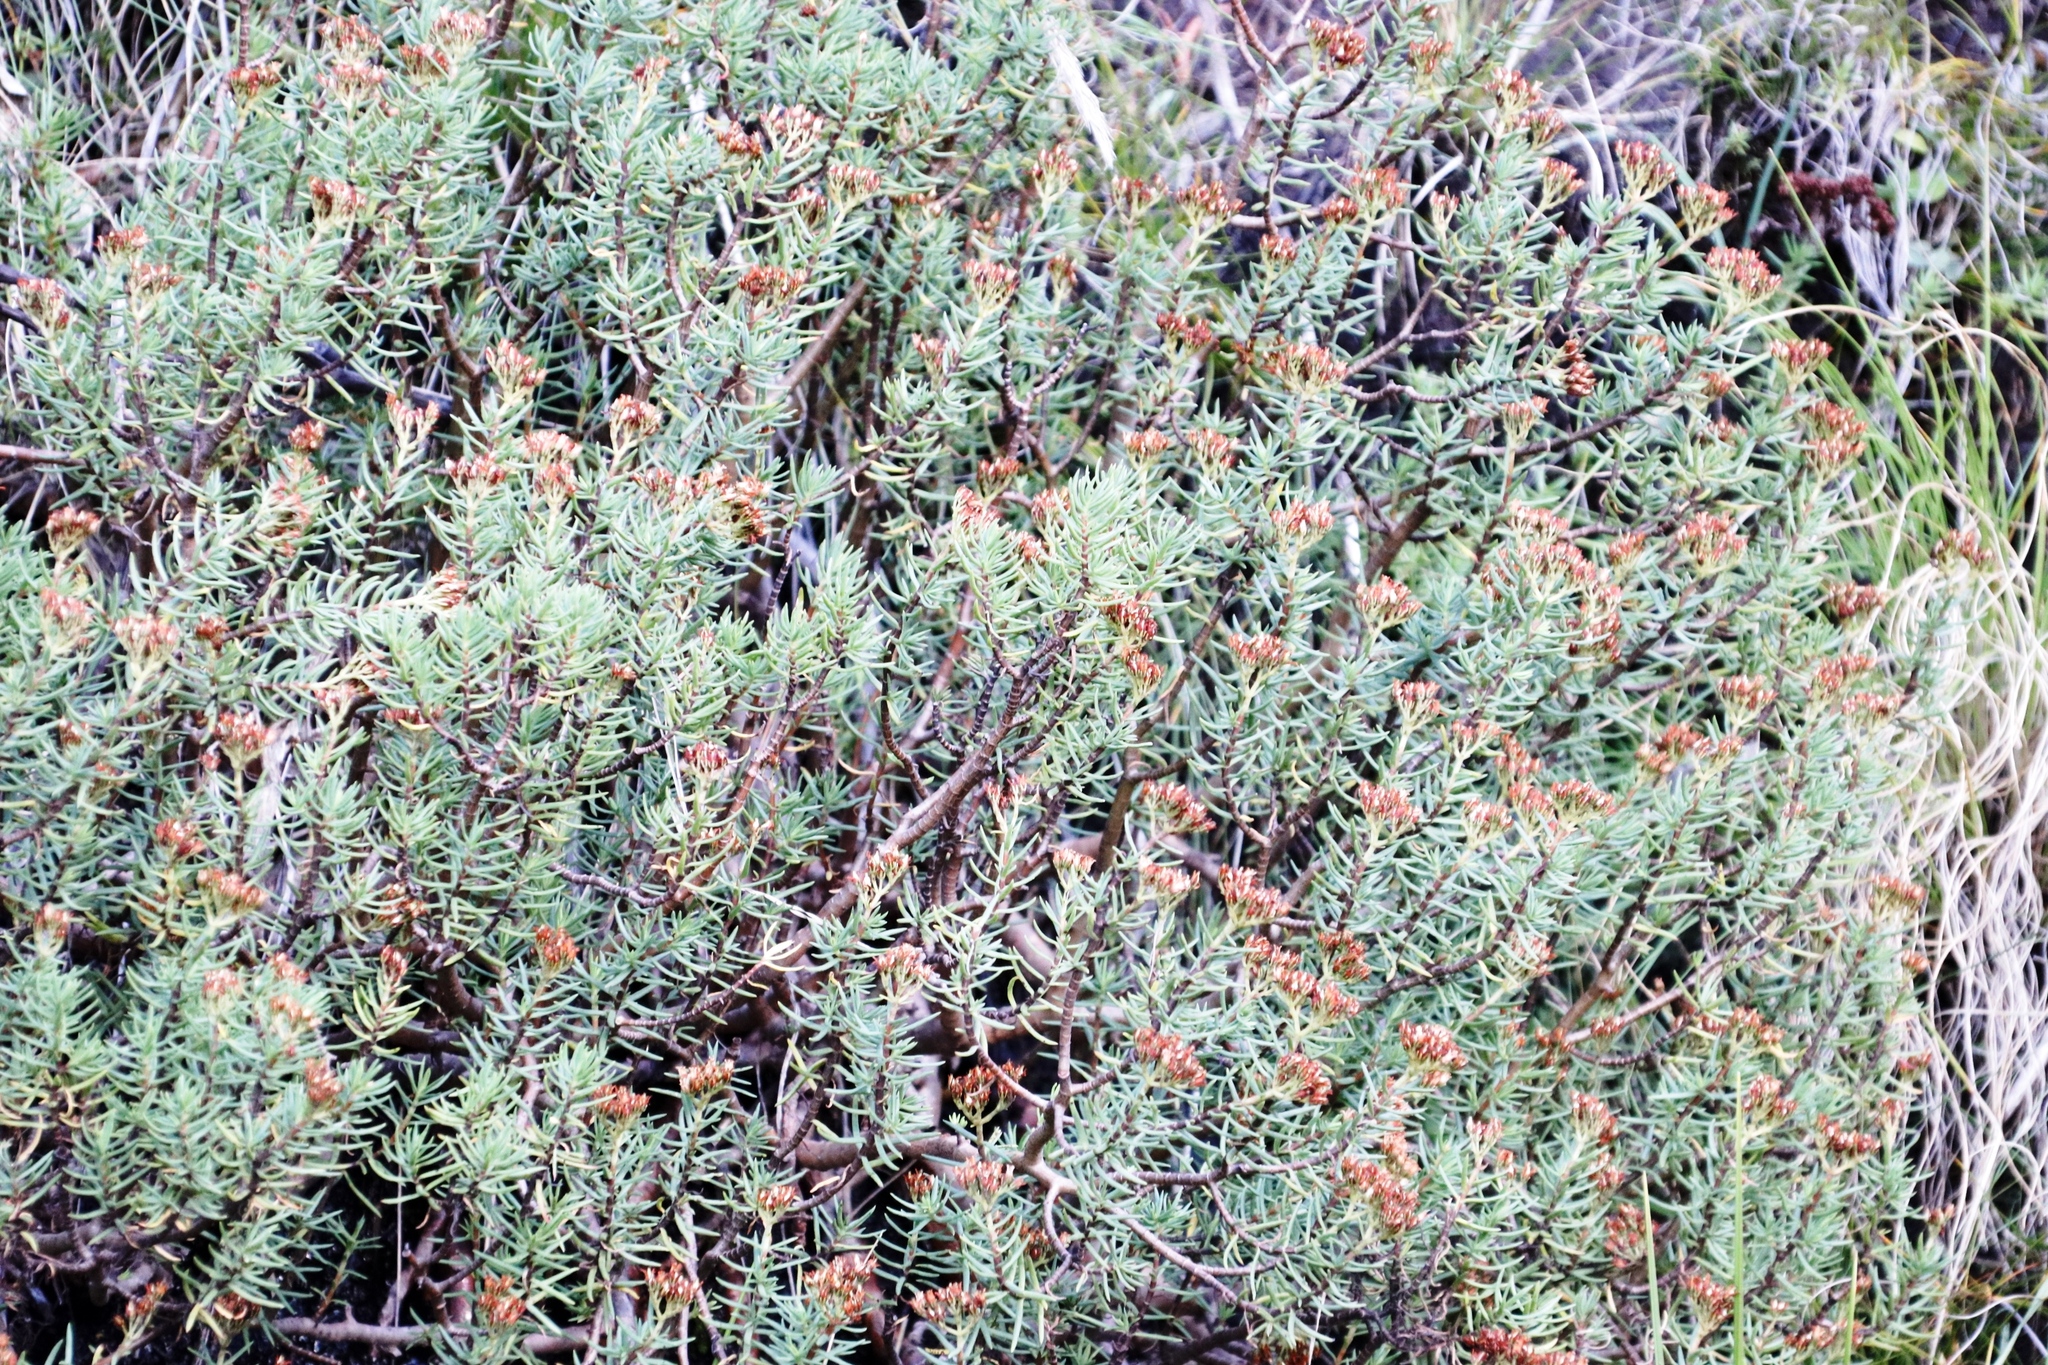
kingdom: Plantae
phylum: Tracheophyta
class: Magnoliopsida
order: Saxifragales
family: Crassulaceae
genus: Crassula
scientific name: Crassula sarcocaulis
